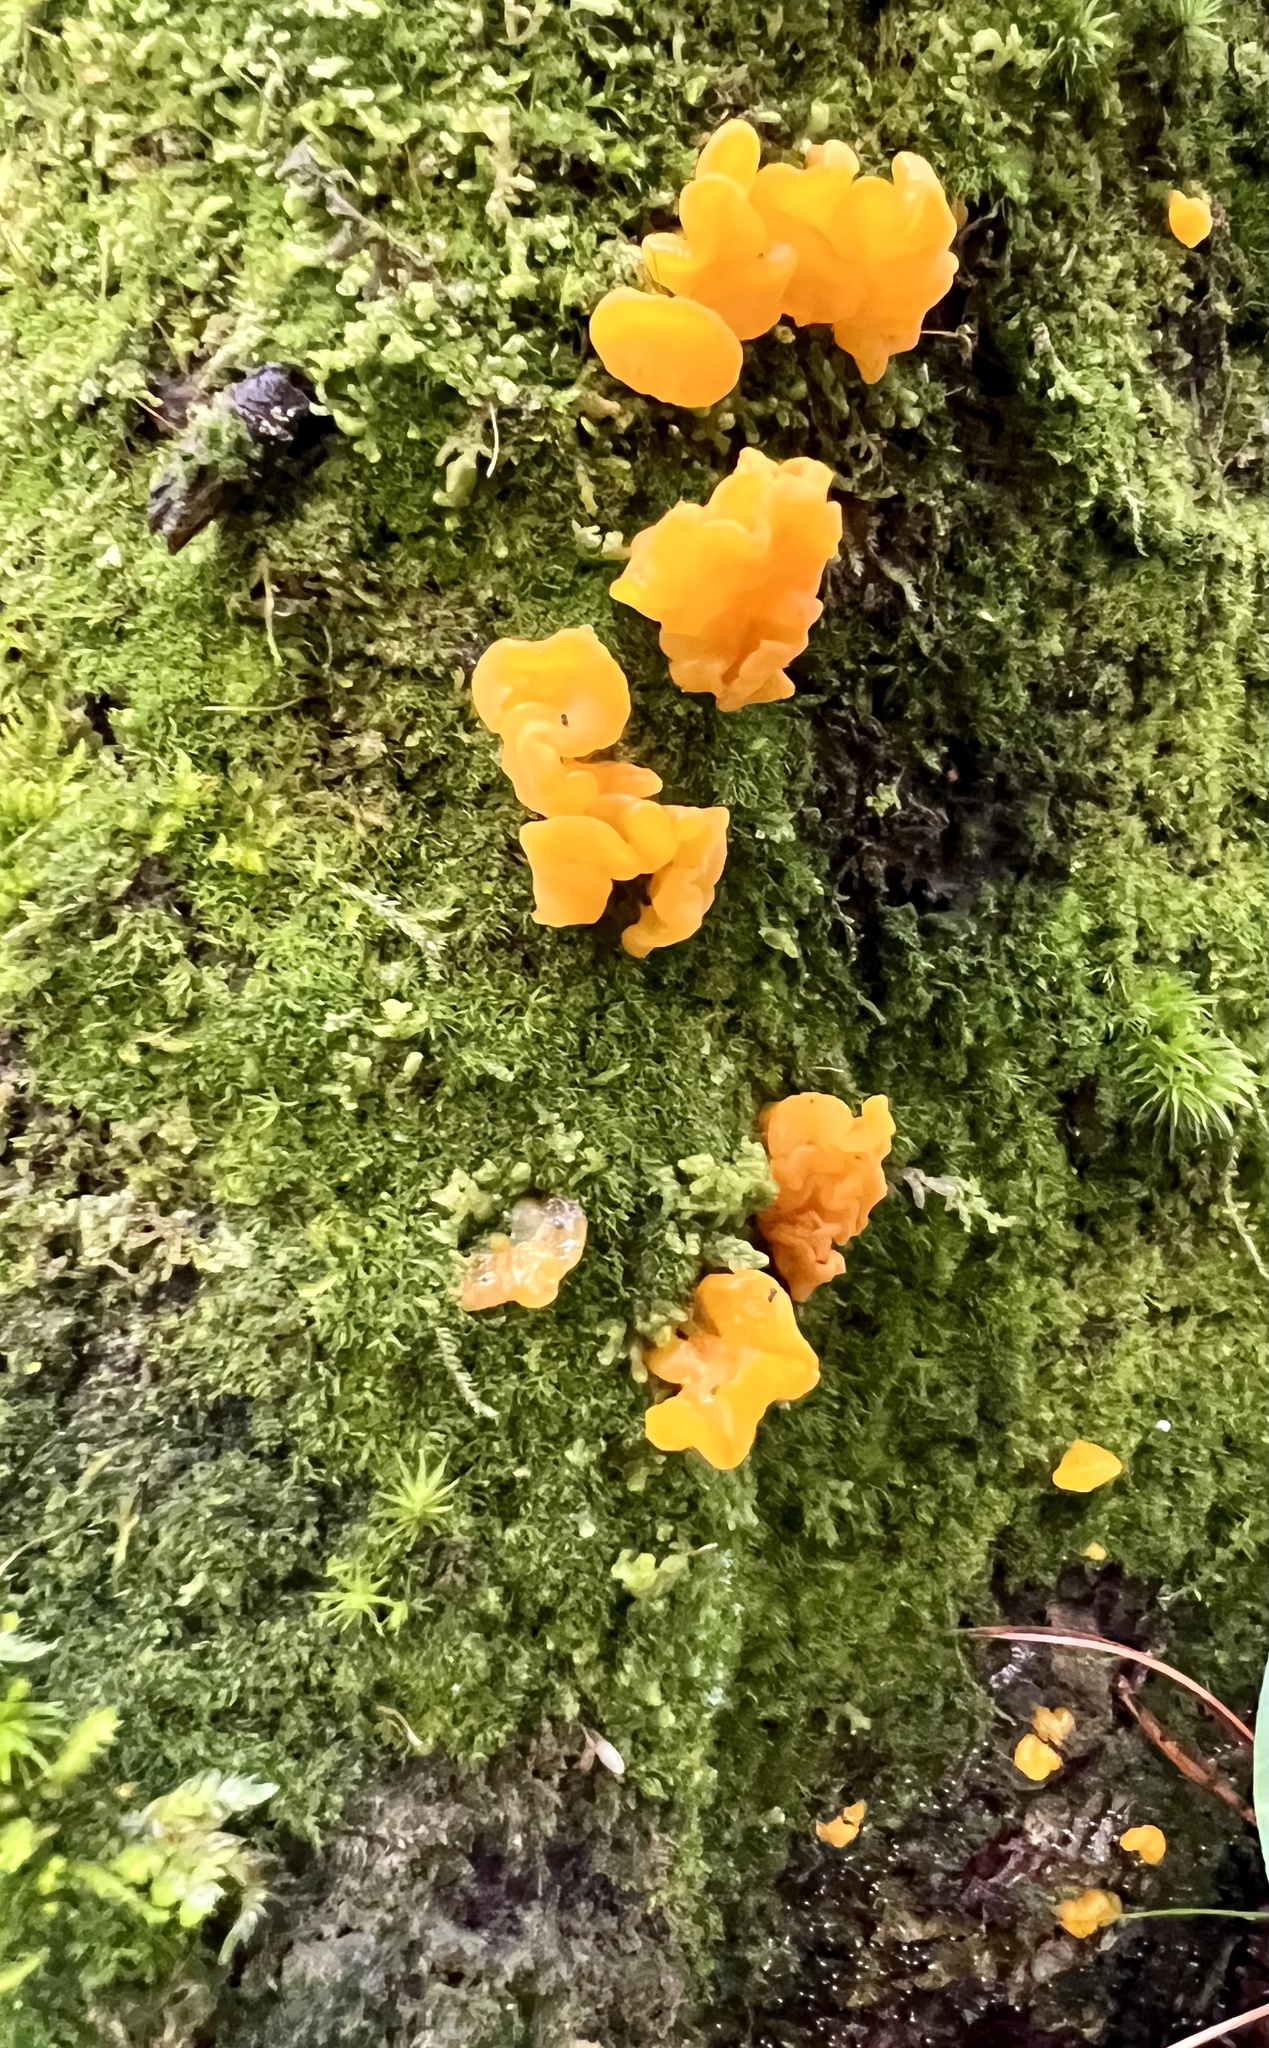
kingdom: Fungi
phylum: Basidiomycota
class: Dacrymycetes
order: Dacrymycetales
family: Dacrymycetaceae
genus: Dacrymyces
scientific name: Dacrymyces chrysospermus
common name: Orange jelly spot
